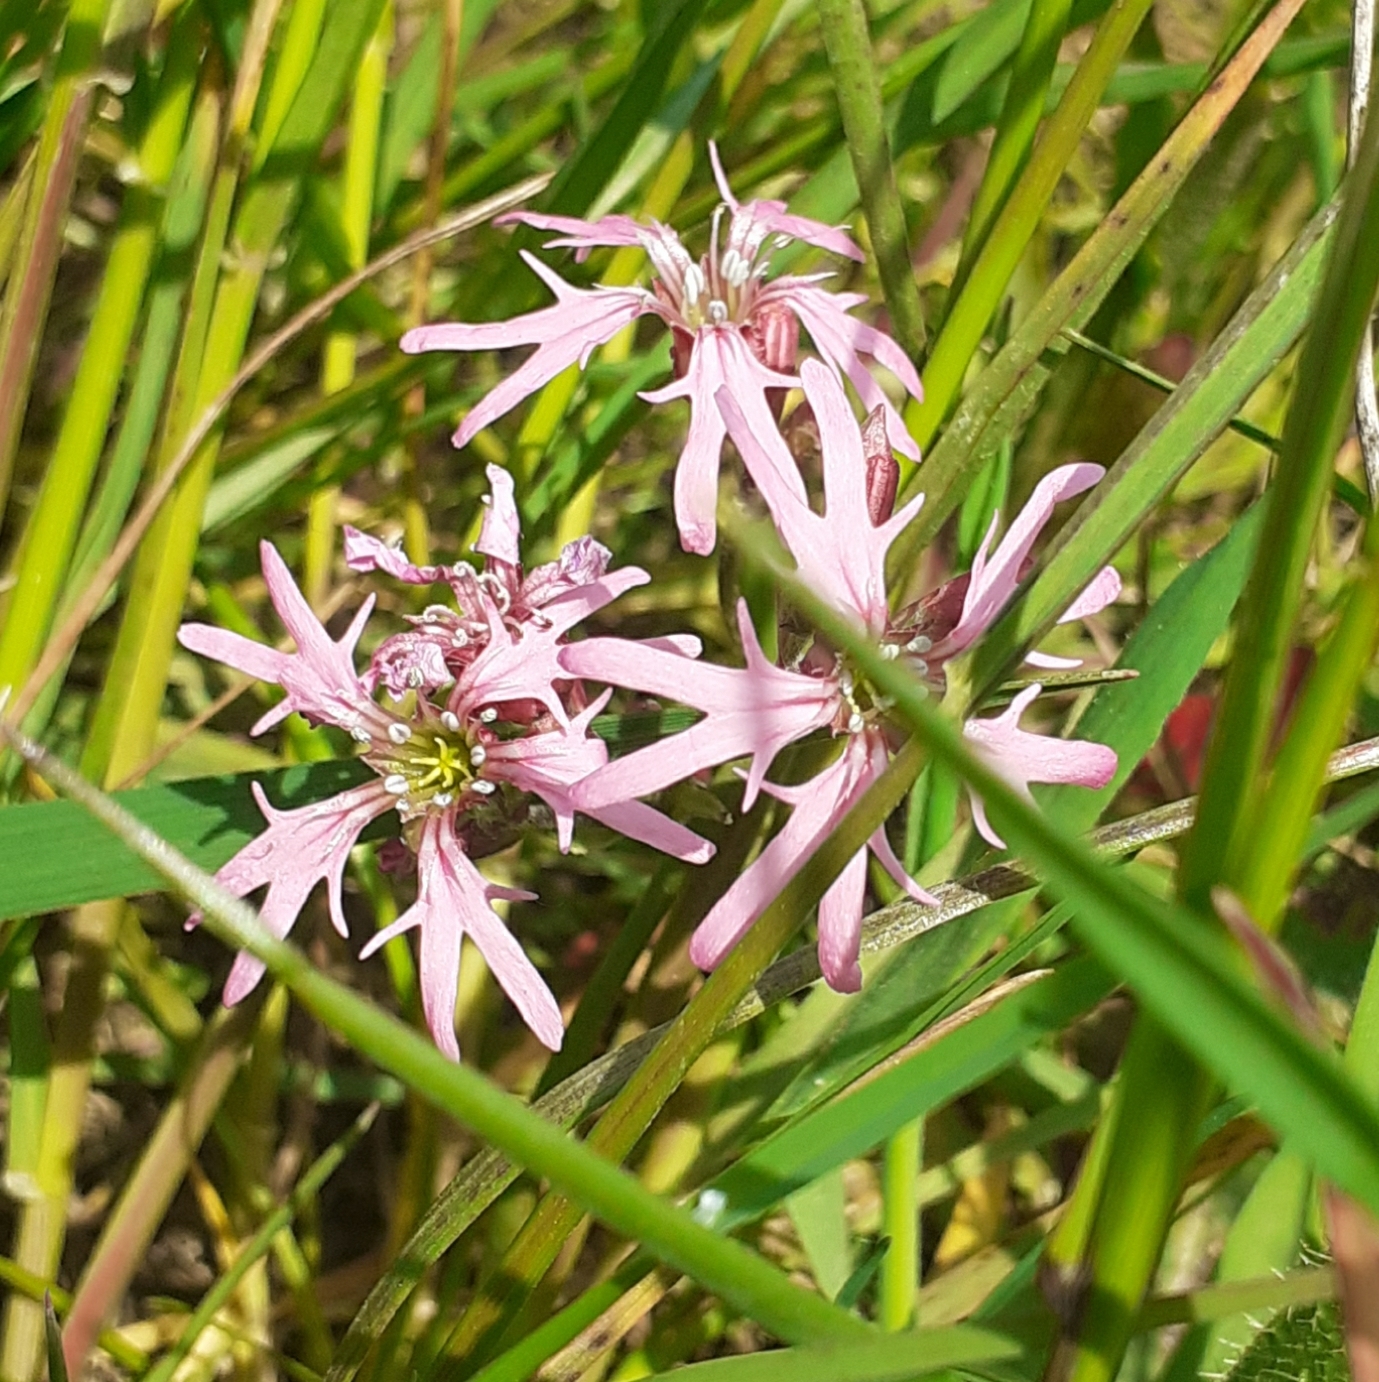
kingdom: Plantae
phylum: Tracheophyta
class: Magnoliopsida
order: Caryophyllales
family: Caryophyllaceae
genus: Silene
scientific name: Silene flos-cuculi
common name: Ragged-robin
